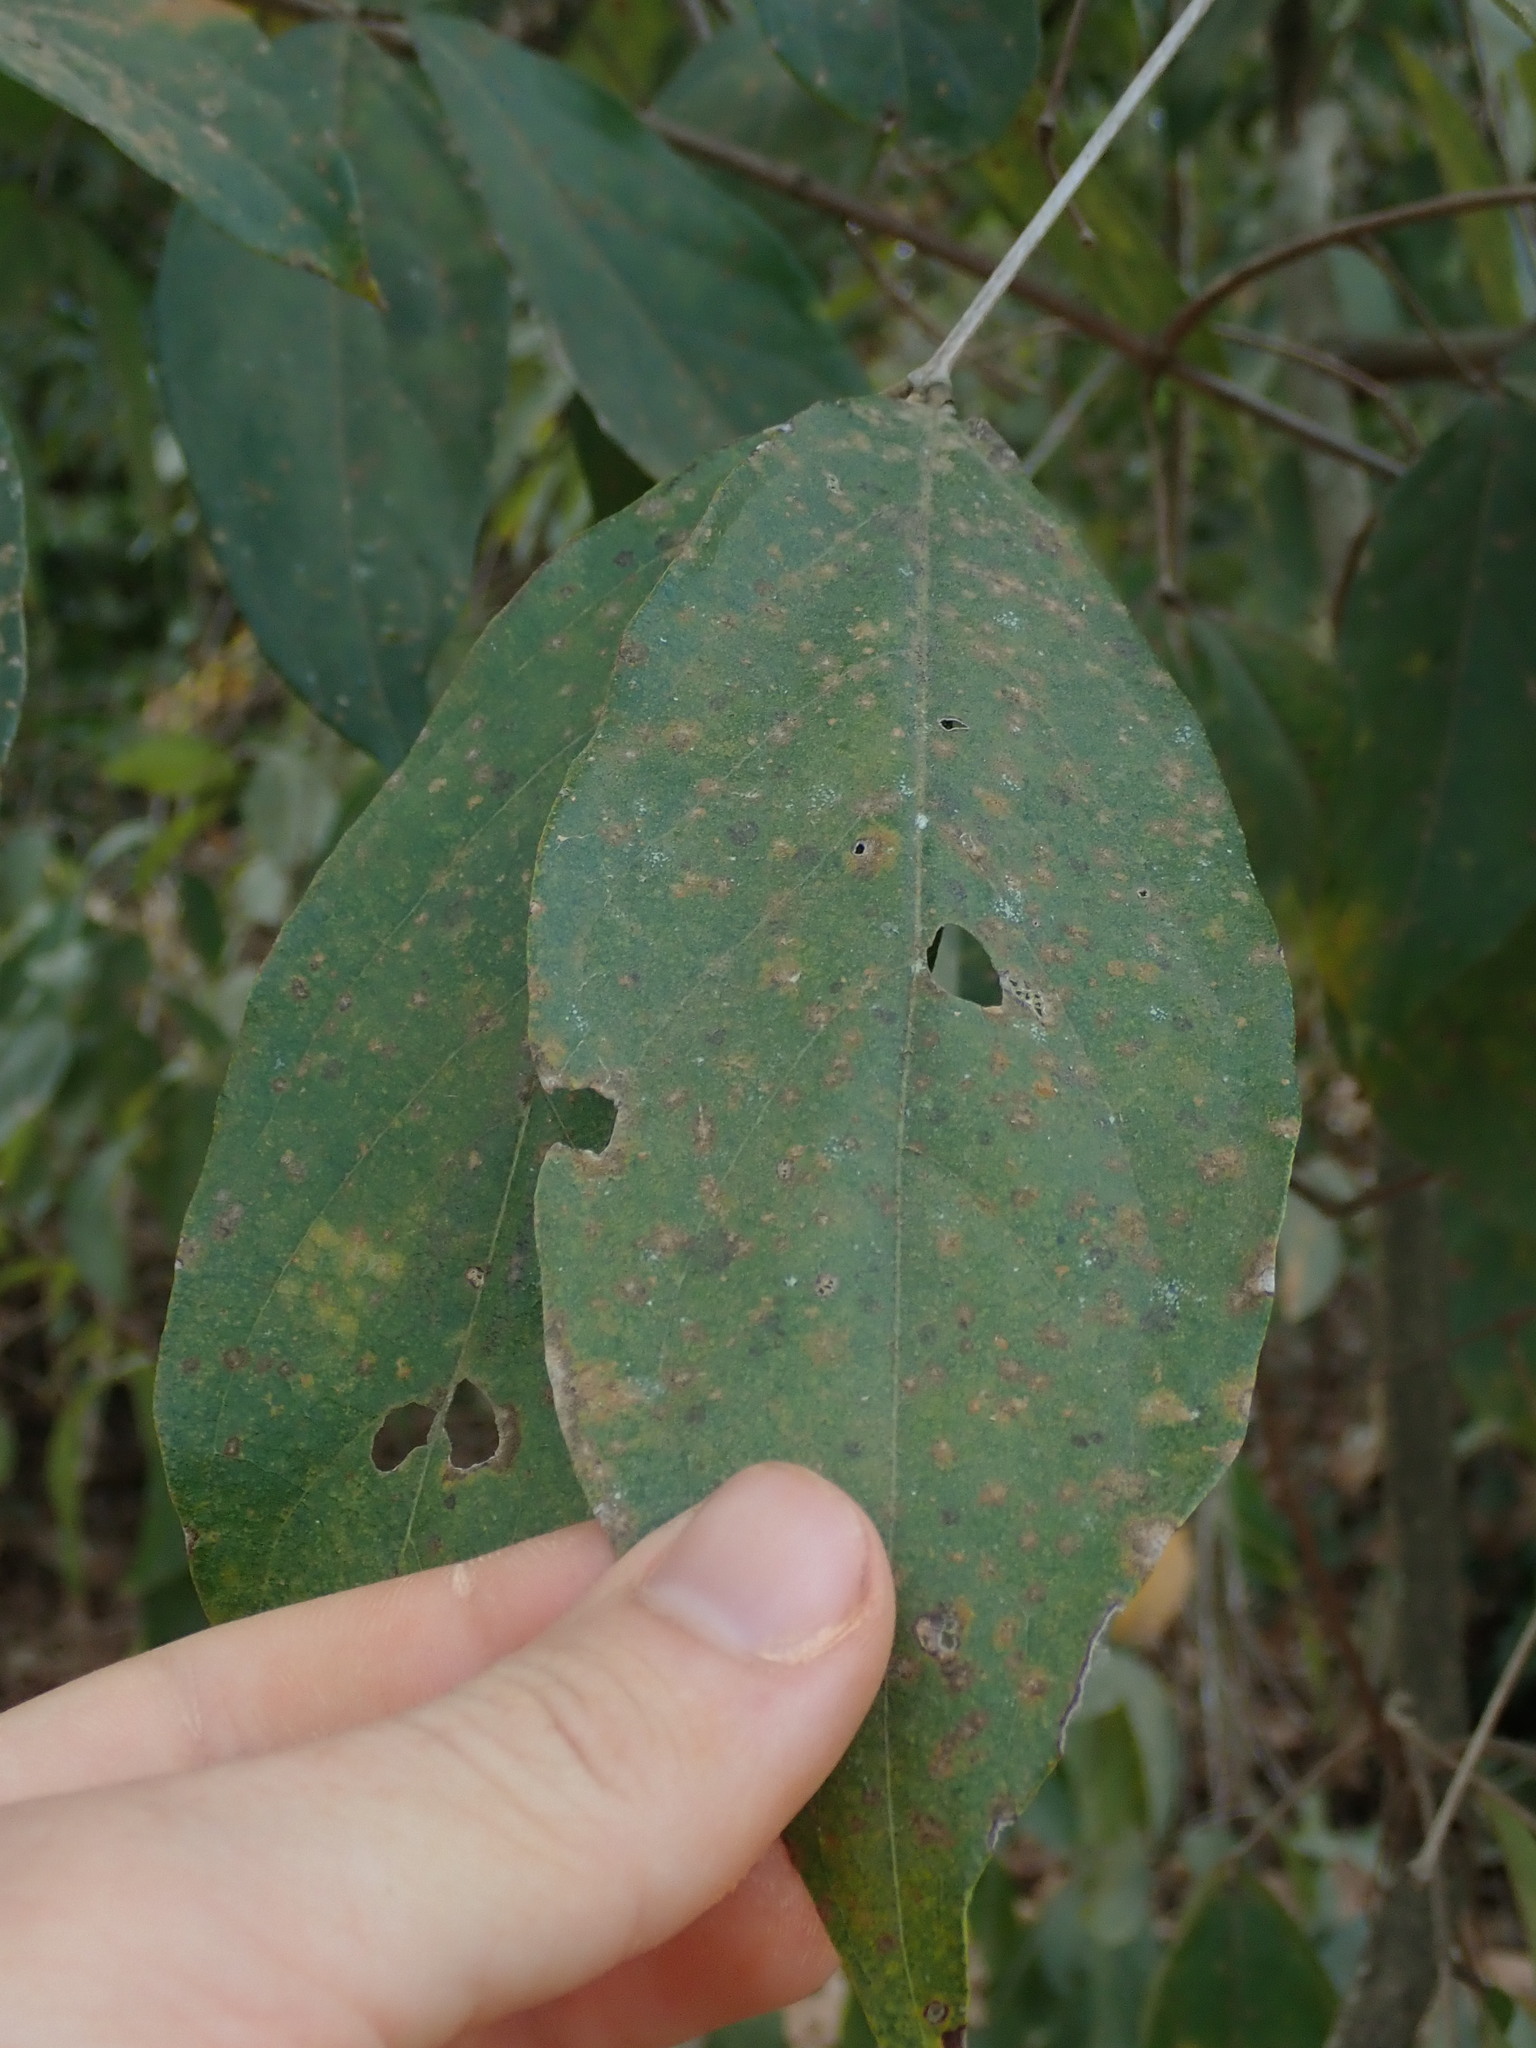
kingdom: Plantae
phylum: Tracheophyta
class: Magnoliopsida
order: Myrtales
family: Combretaceae
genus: Getonia
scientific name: Getonia floribunda
